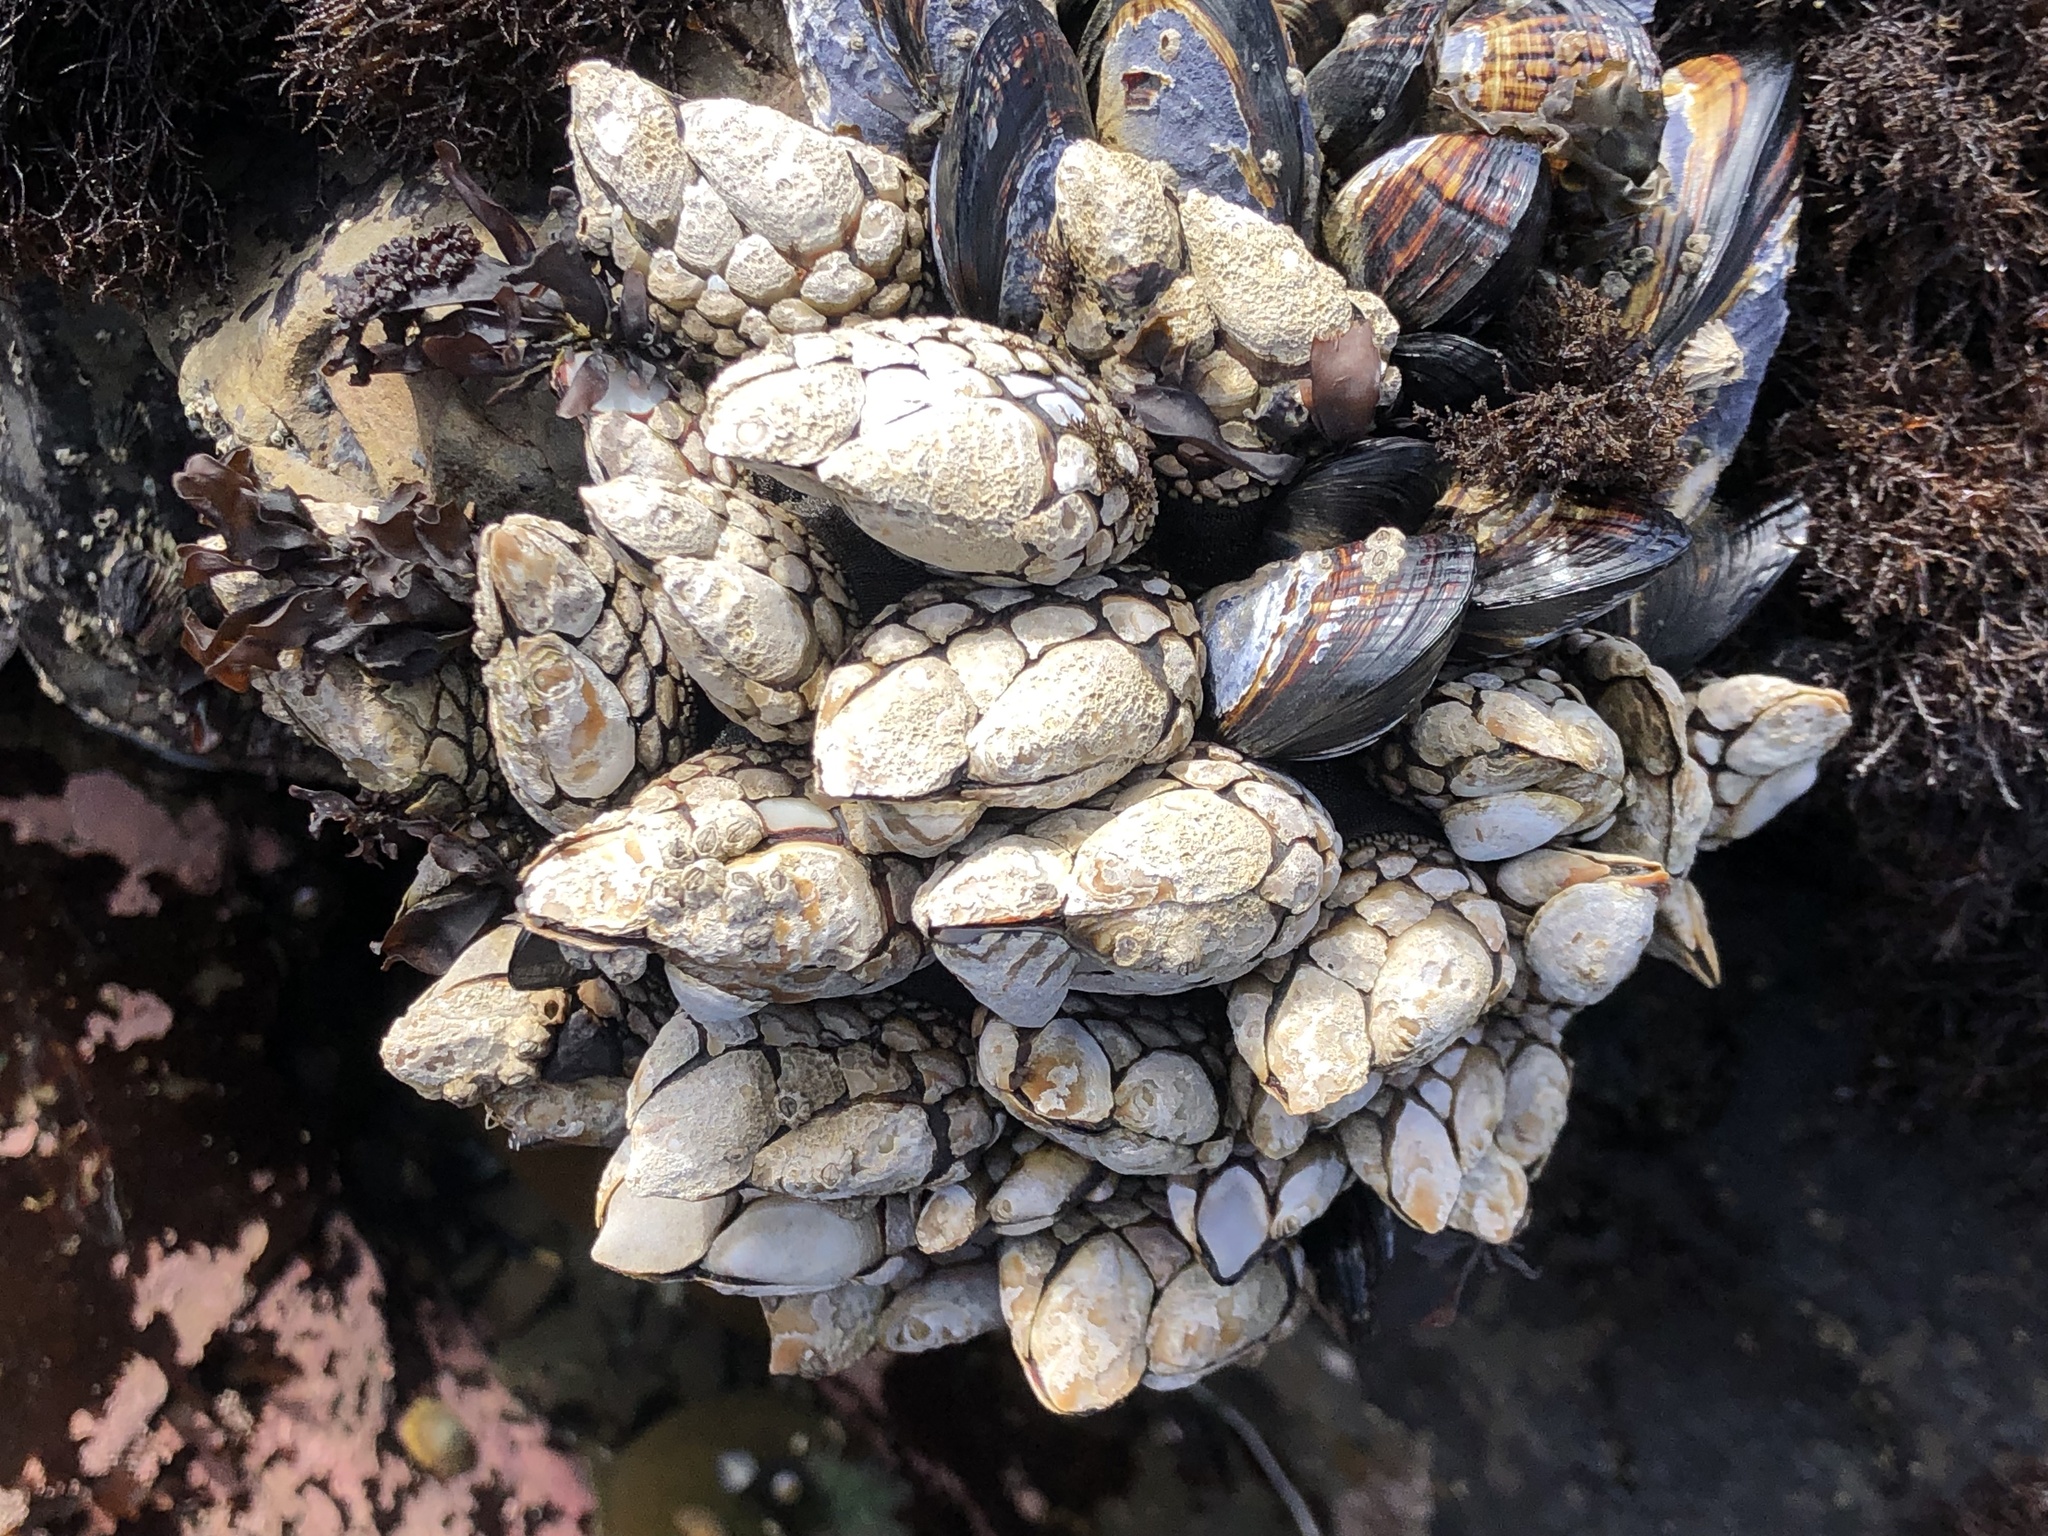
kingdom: Animalia
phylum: Arthropoda
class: Maxillopoda
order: Pedunculata
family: Pollicipedidae
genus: Pollicipes
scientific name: Pollicipes polymerus
